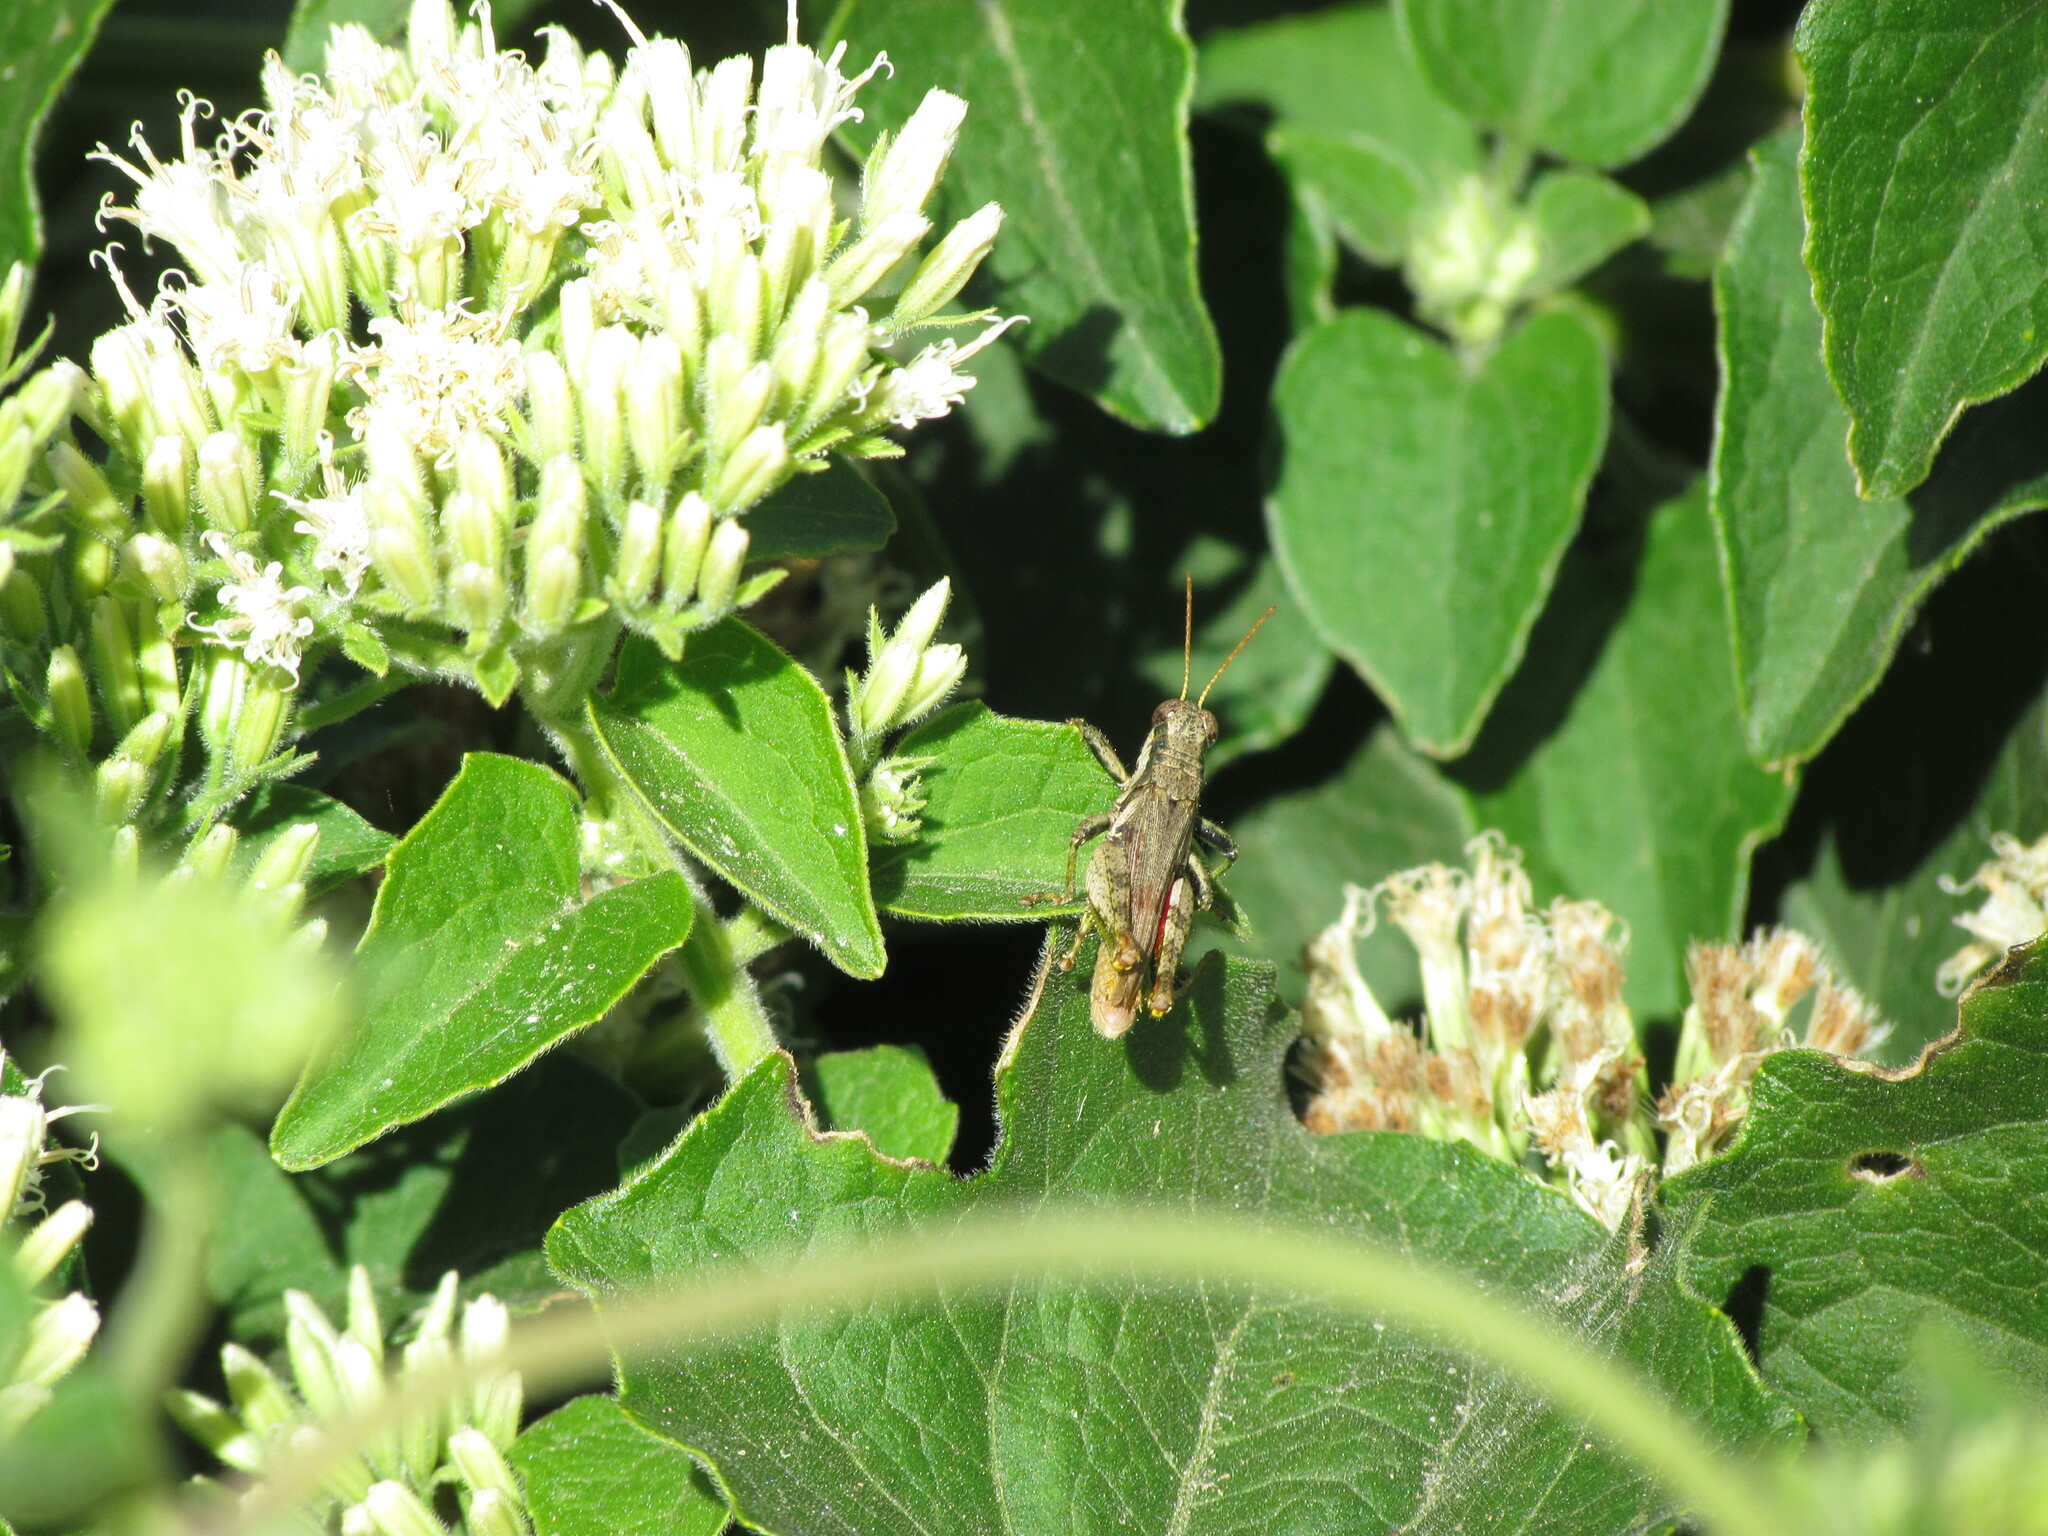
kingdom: Animalia
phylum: Arthropoda
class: Insecta
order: Orthoptera
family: Acrididae
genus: Ronderosia
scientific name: Ronderosia bergii
